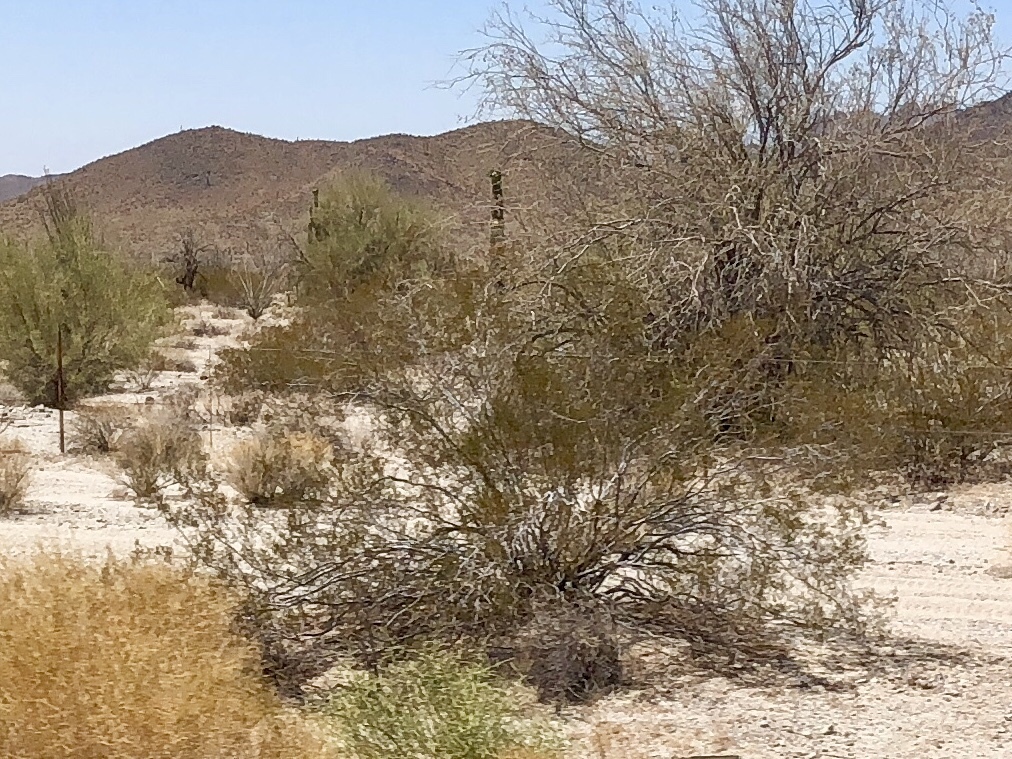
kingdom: Plantae
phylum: Tracheophyta
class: Magnoliopsida
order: Zygophyllales
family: Zygophyllaceae
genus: Larrea
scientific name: Larrea tridentata
